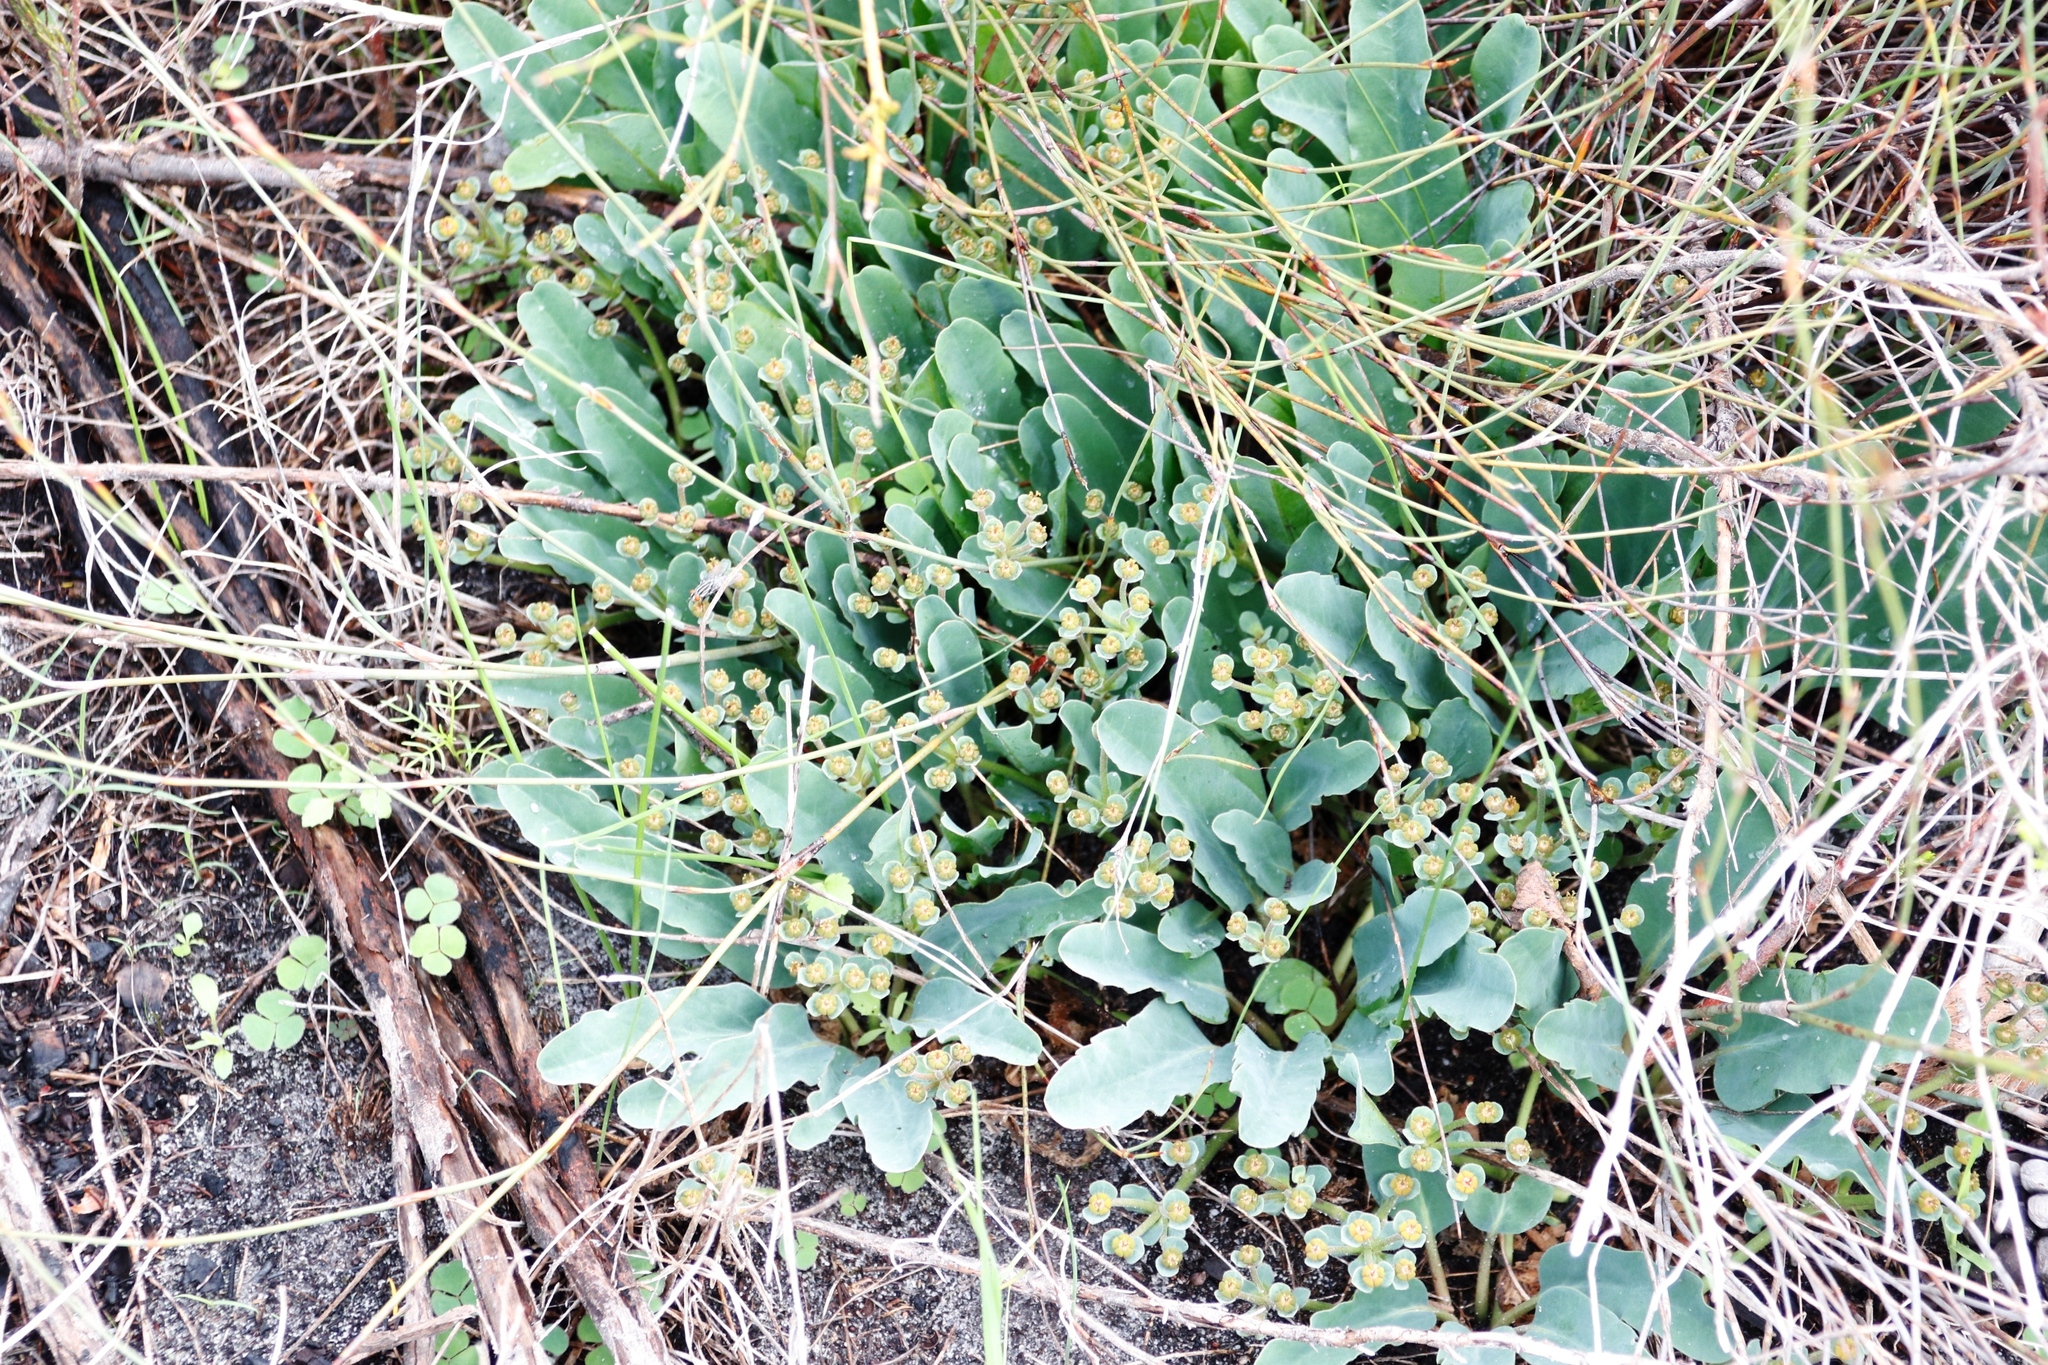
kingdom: Plantae
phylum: Tracheophyta
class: Magnoliopsida
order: Malpighiales
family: Euphorbiaceae
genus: Euphorbia
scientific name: Euphorbia tuberosa
